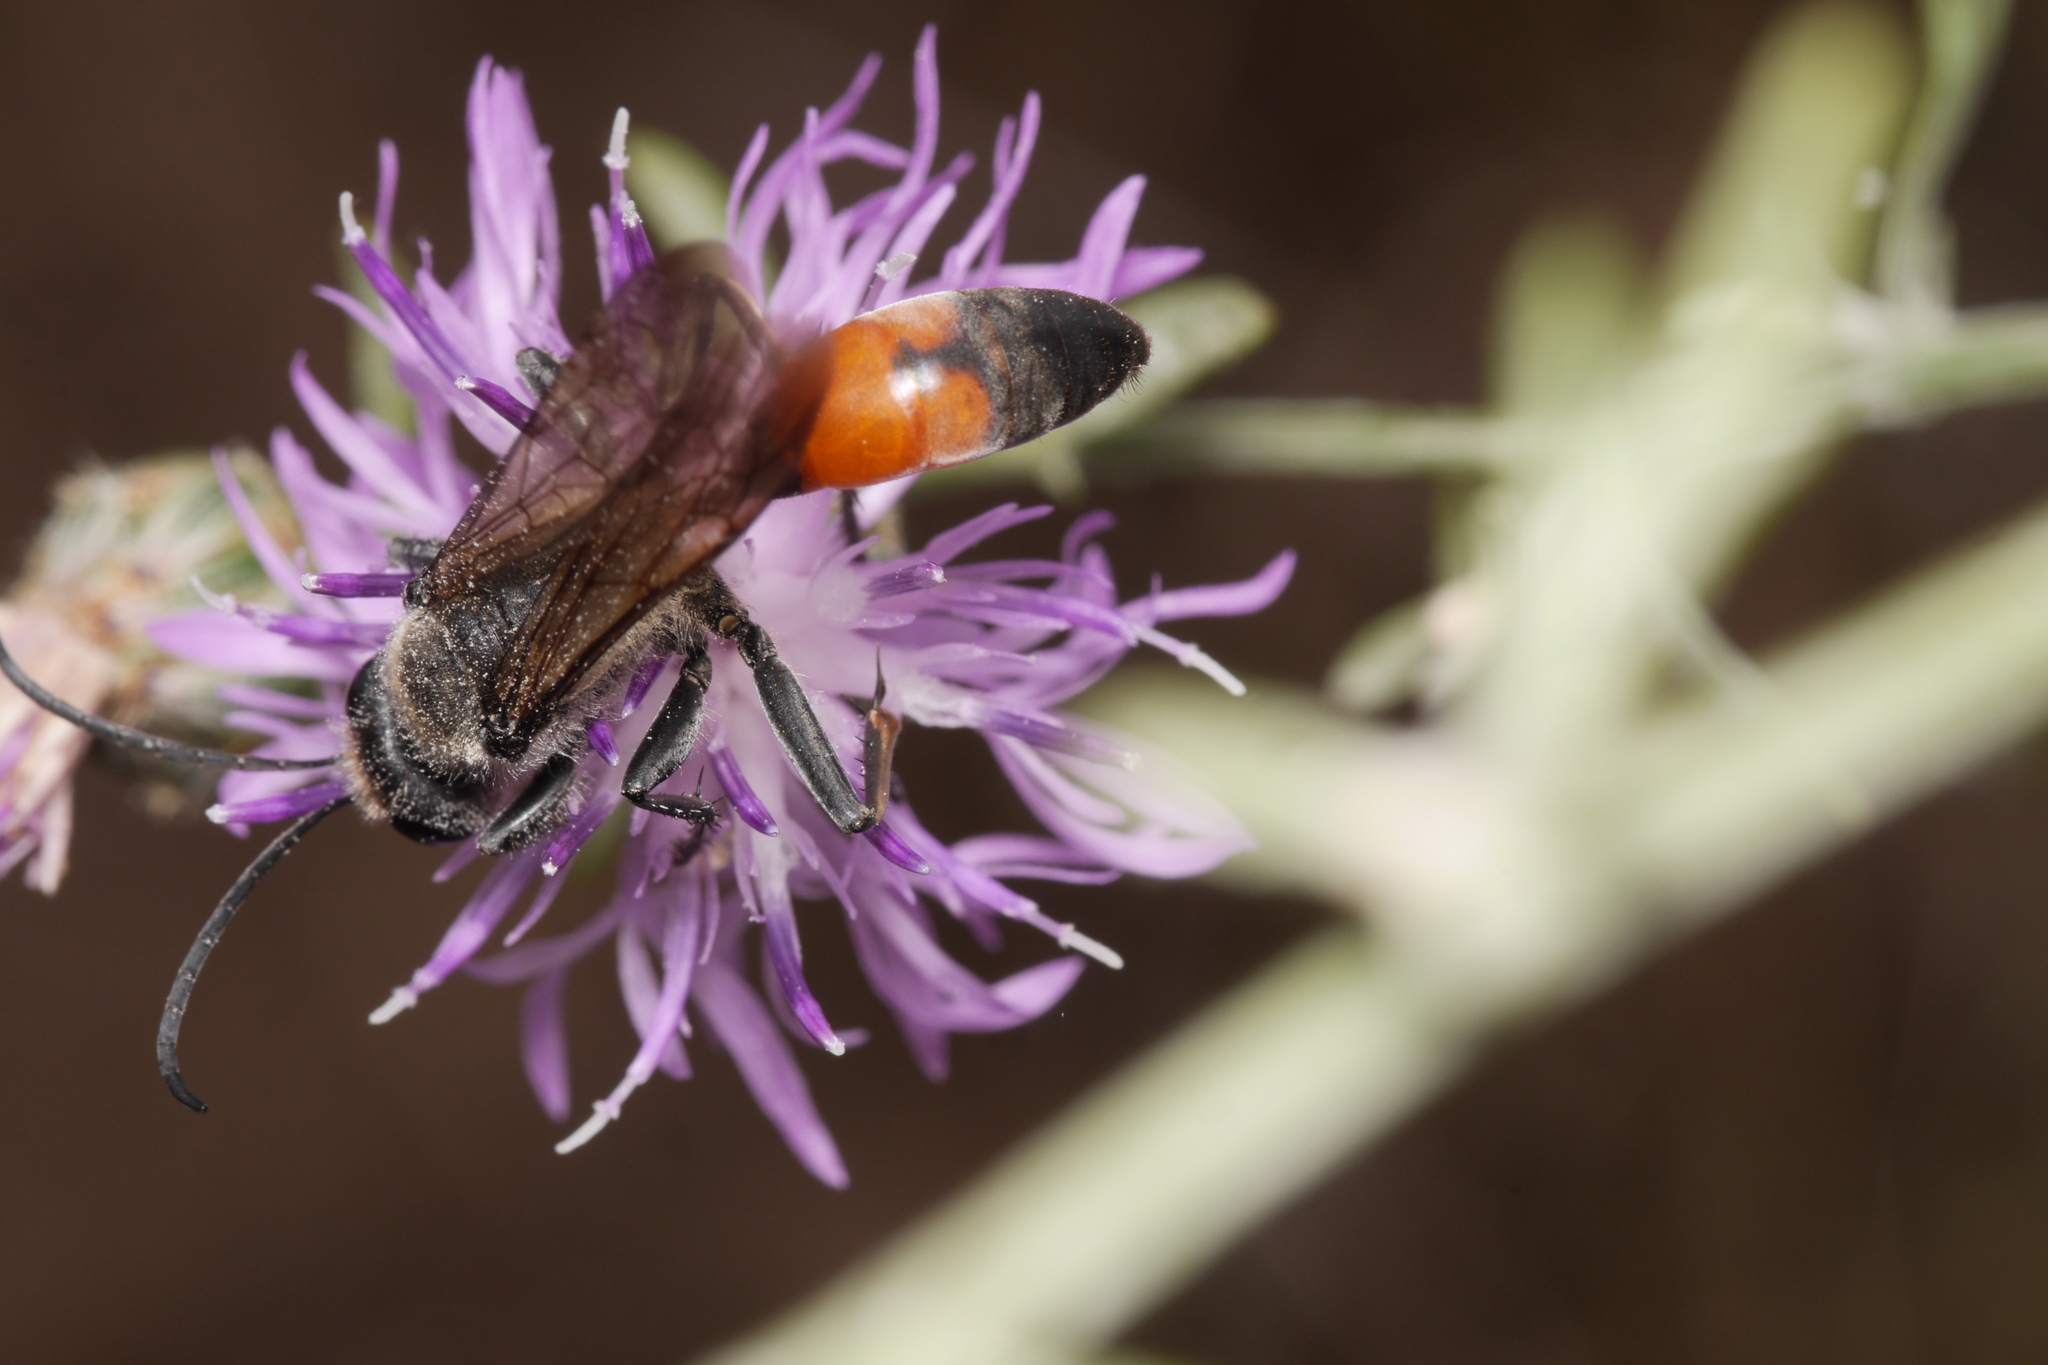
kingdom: Animalia
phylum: Arthropoda
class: Insecta
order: Hymenoptera
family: Sphecidae
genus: Sphex
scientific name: Sphex funerarius
